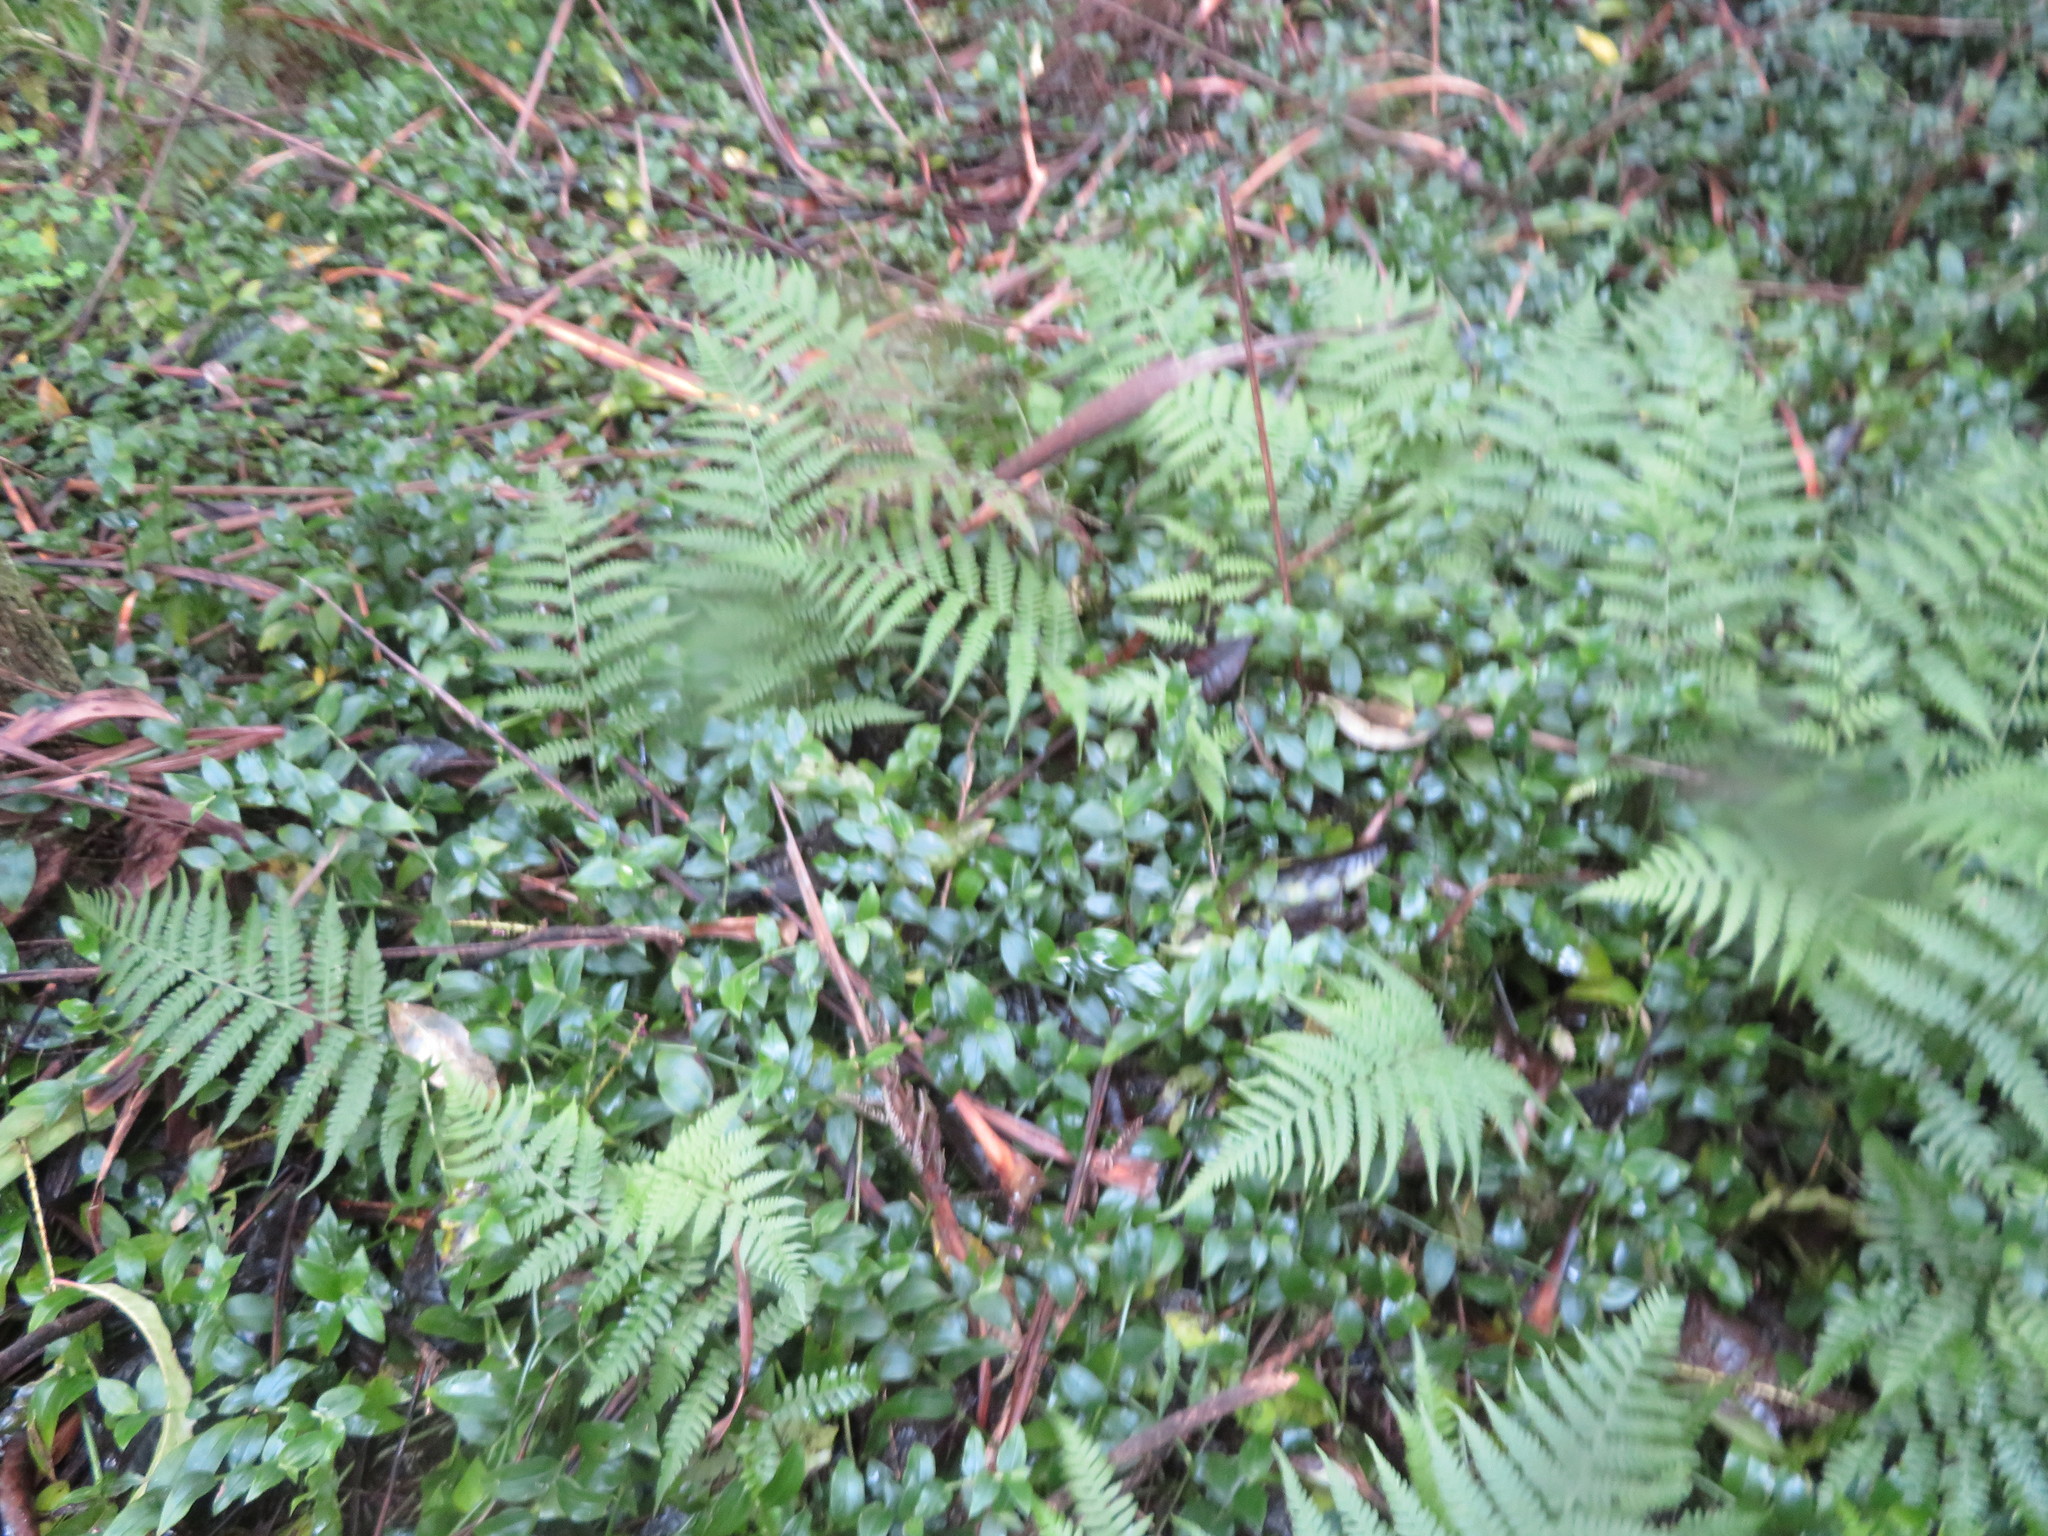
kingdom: Plantae
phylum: Tracheophyta
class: Polypodiopsida
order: Polypodiales
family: Athyriaceae
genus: Diplazium
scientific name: Diplazium congruum
